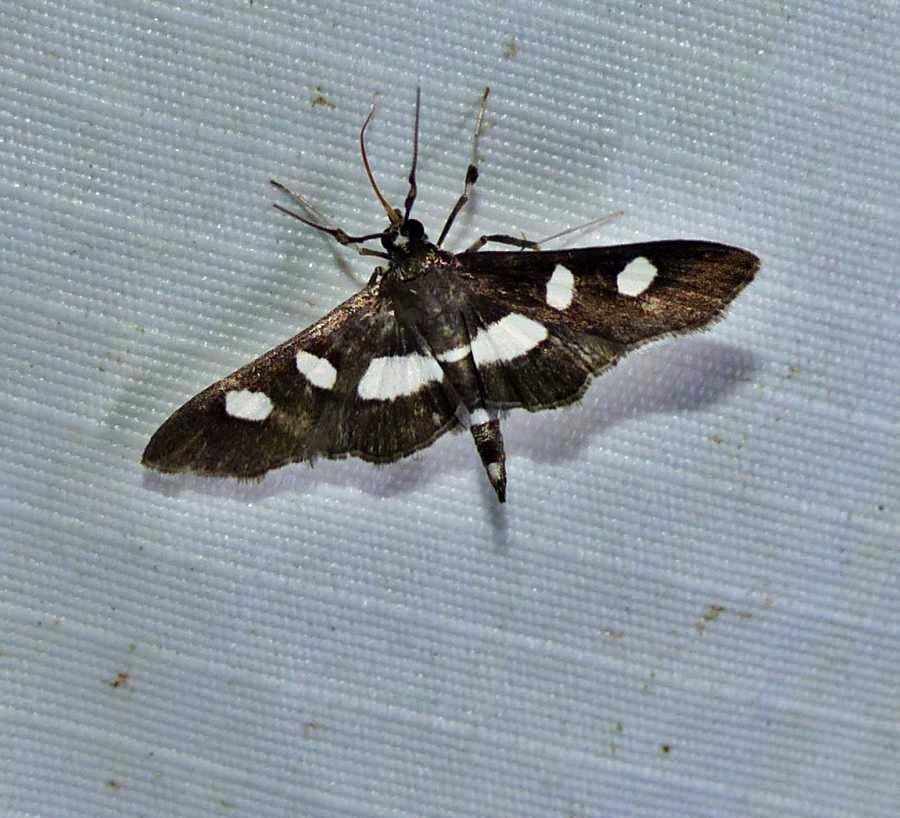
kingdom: Animalia
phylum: Arthropoda
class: Insecta
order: Lepidoptera
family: Crambidae
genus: Desmia
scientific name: Desmia
